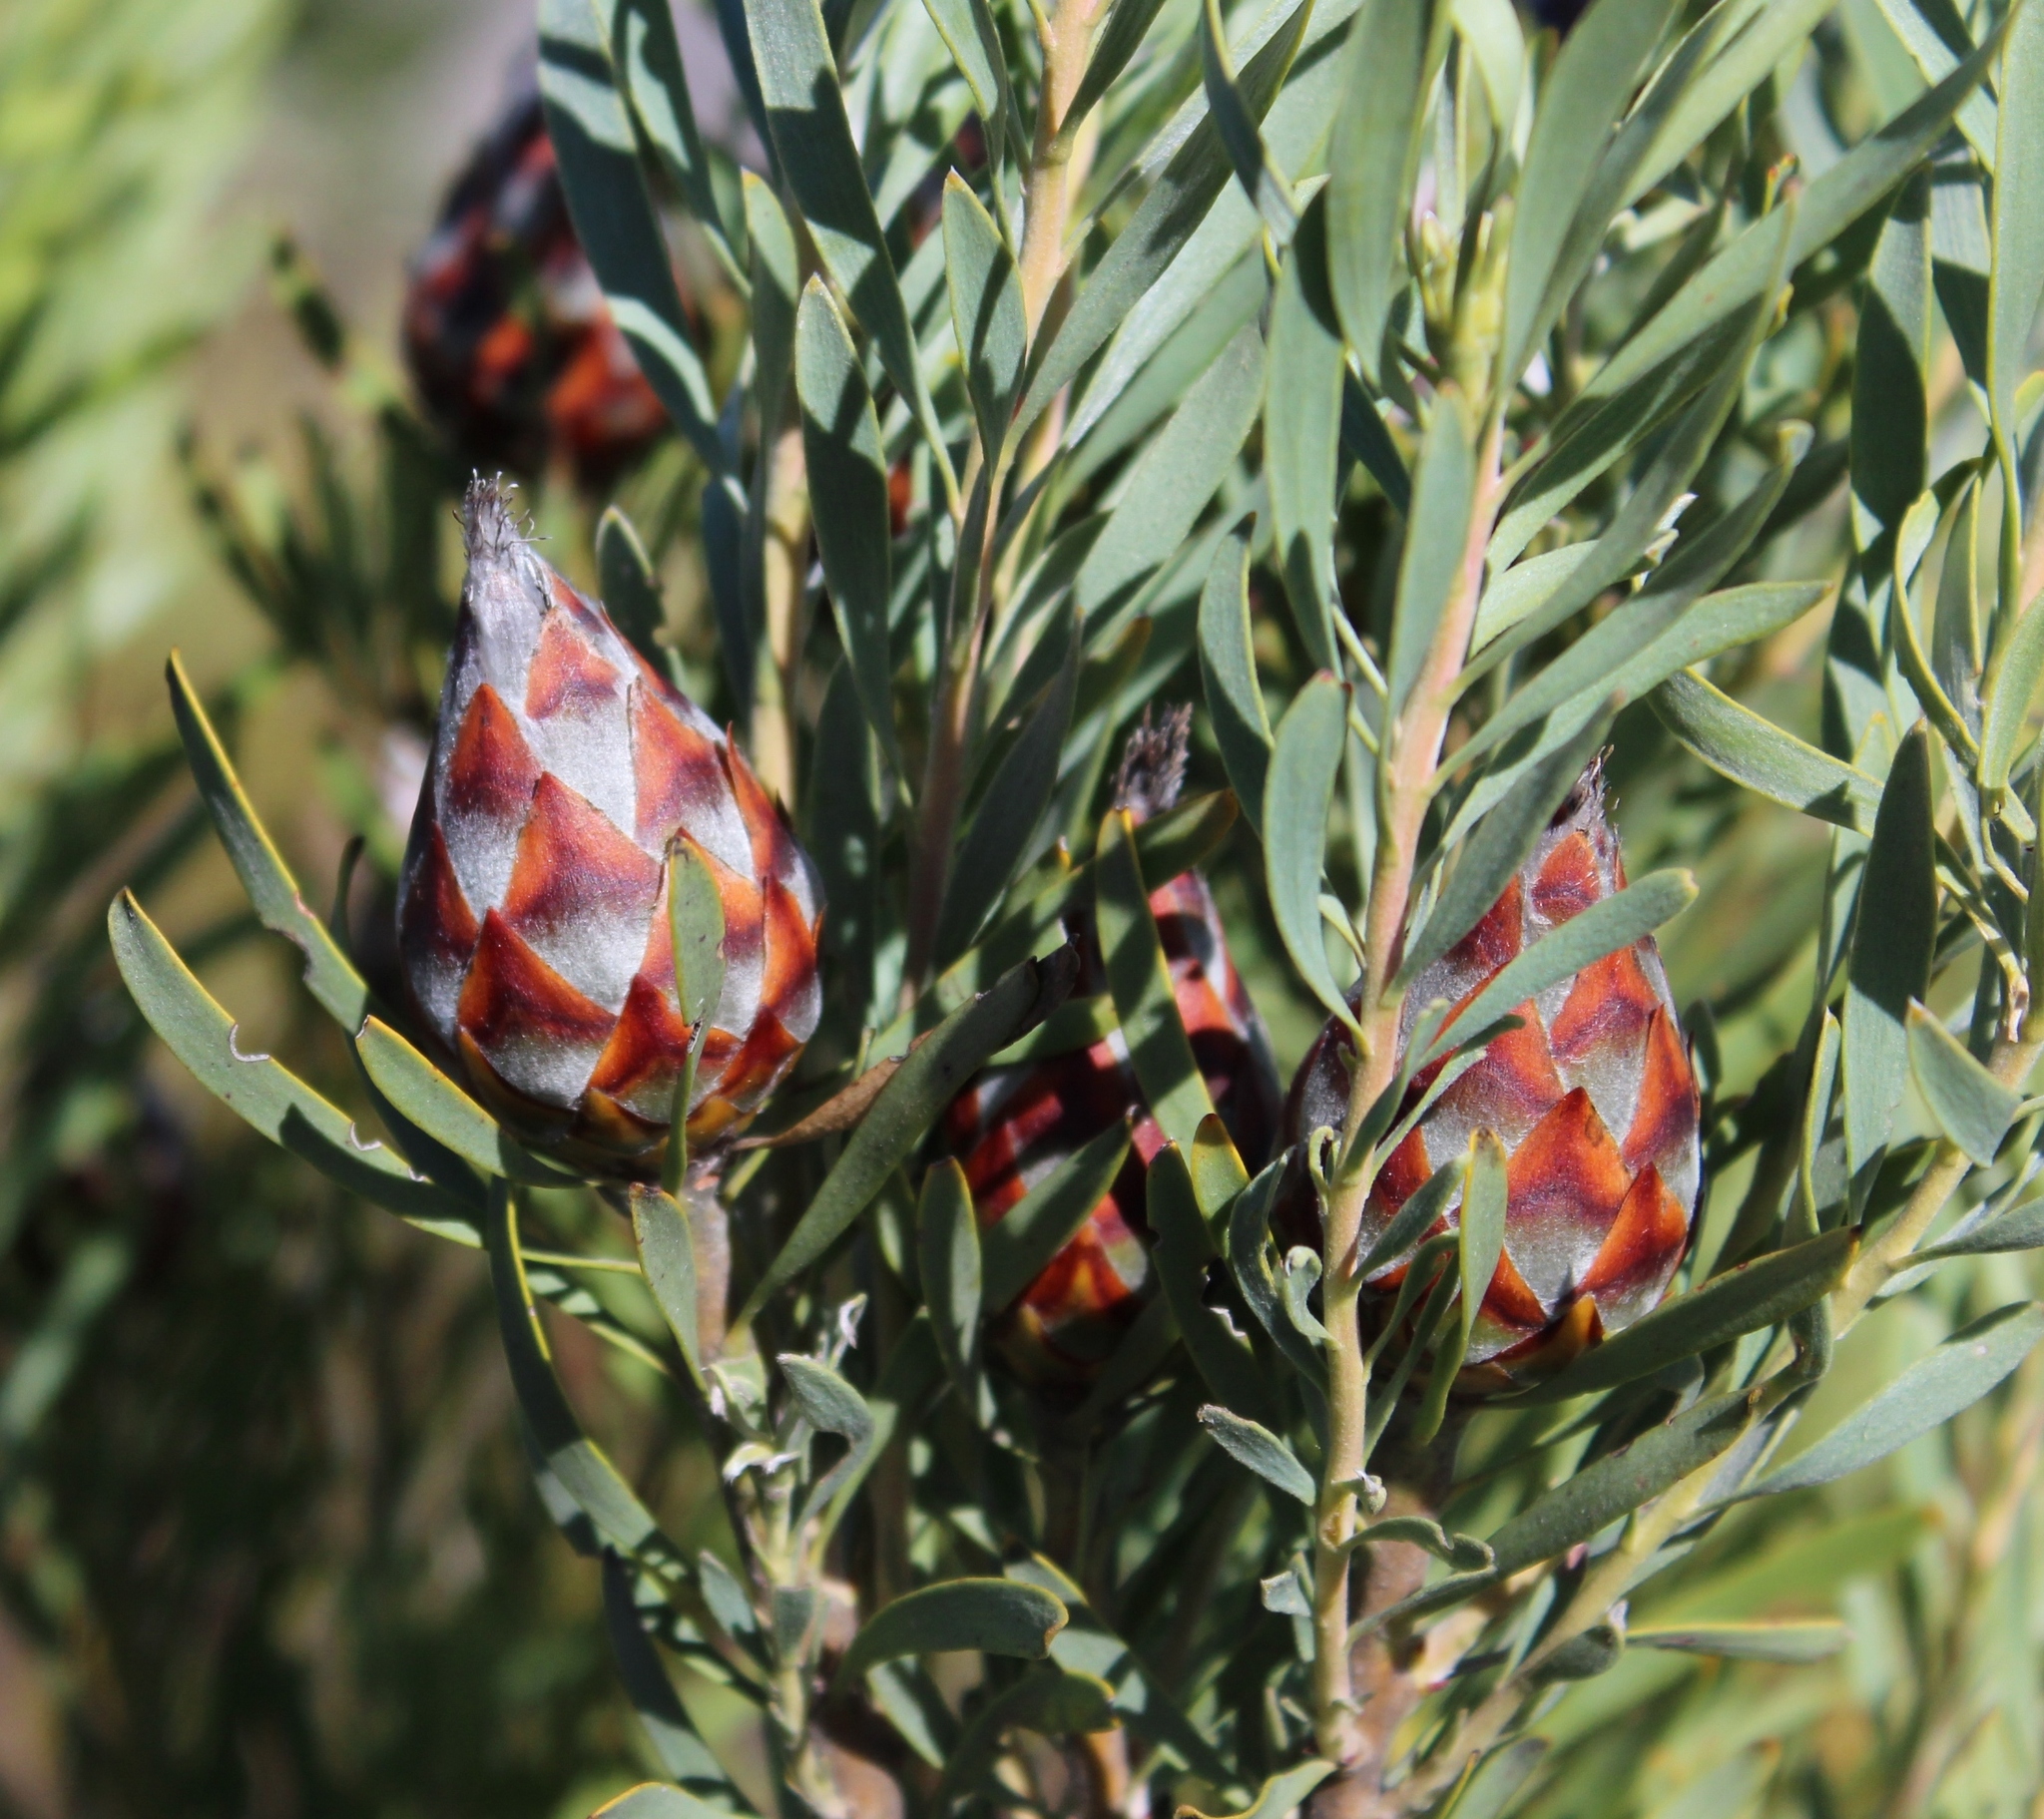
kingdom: Plantae
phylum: Tracheophyta
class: Magnoliopsida
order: Proteales
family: Proteaceae
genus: Leucadendron
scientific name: Leucadendron rubrum
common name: Spinning top
